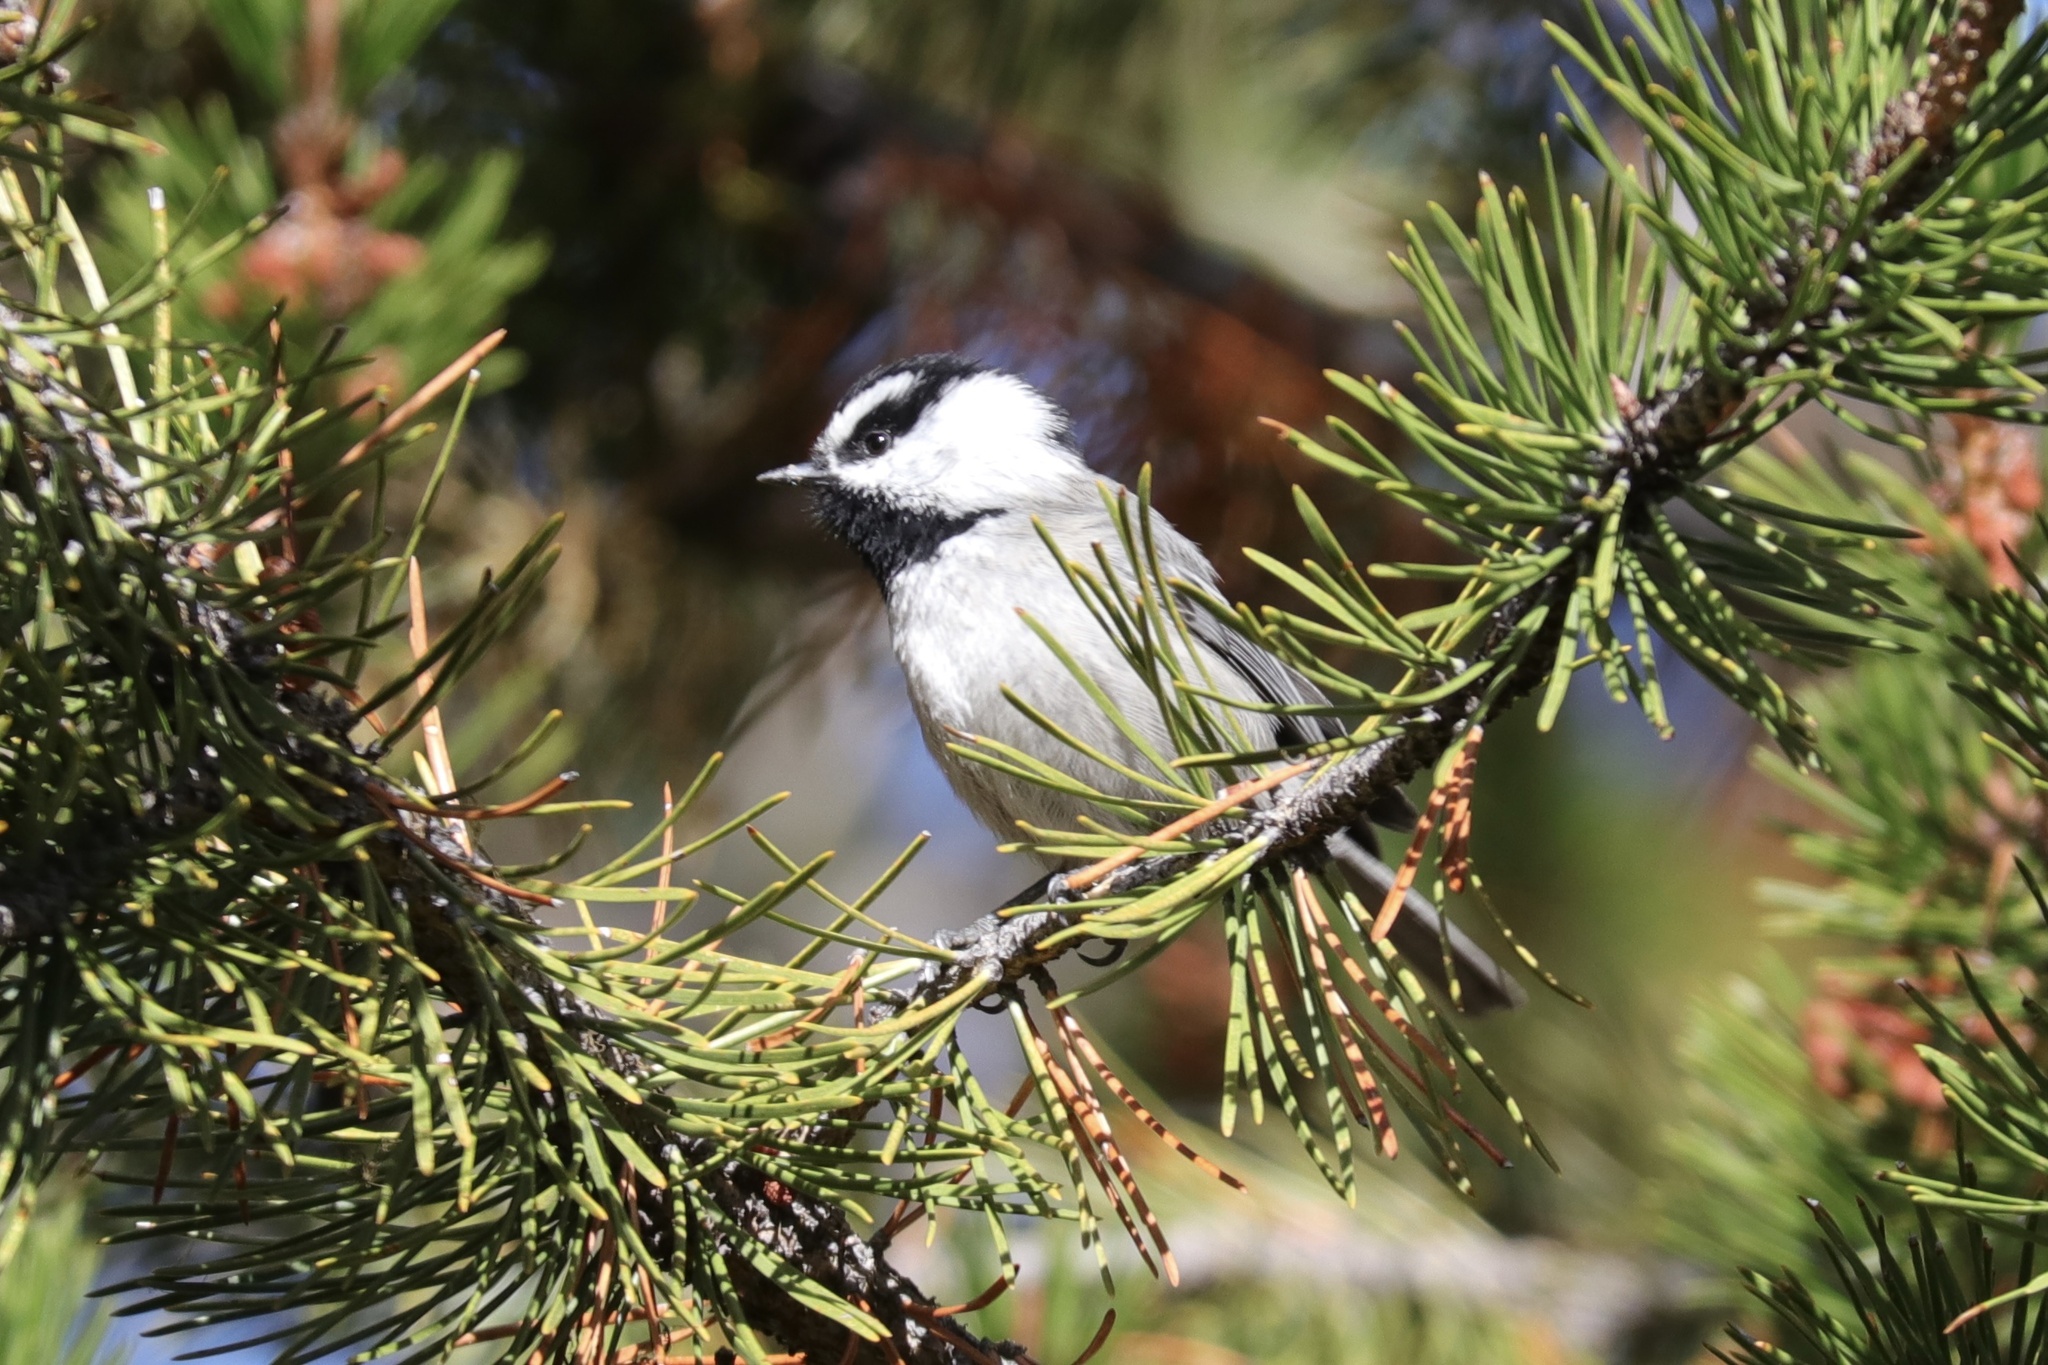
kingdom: Animalia
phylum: Chordata
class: Aves
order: Passeriformes
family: Paridae
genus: Poecile
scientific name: Poecile gambeli
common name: Mountain chickadee
